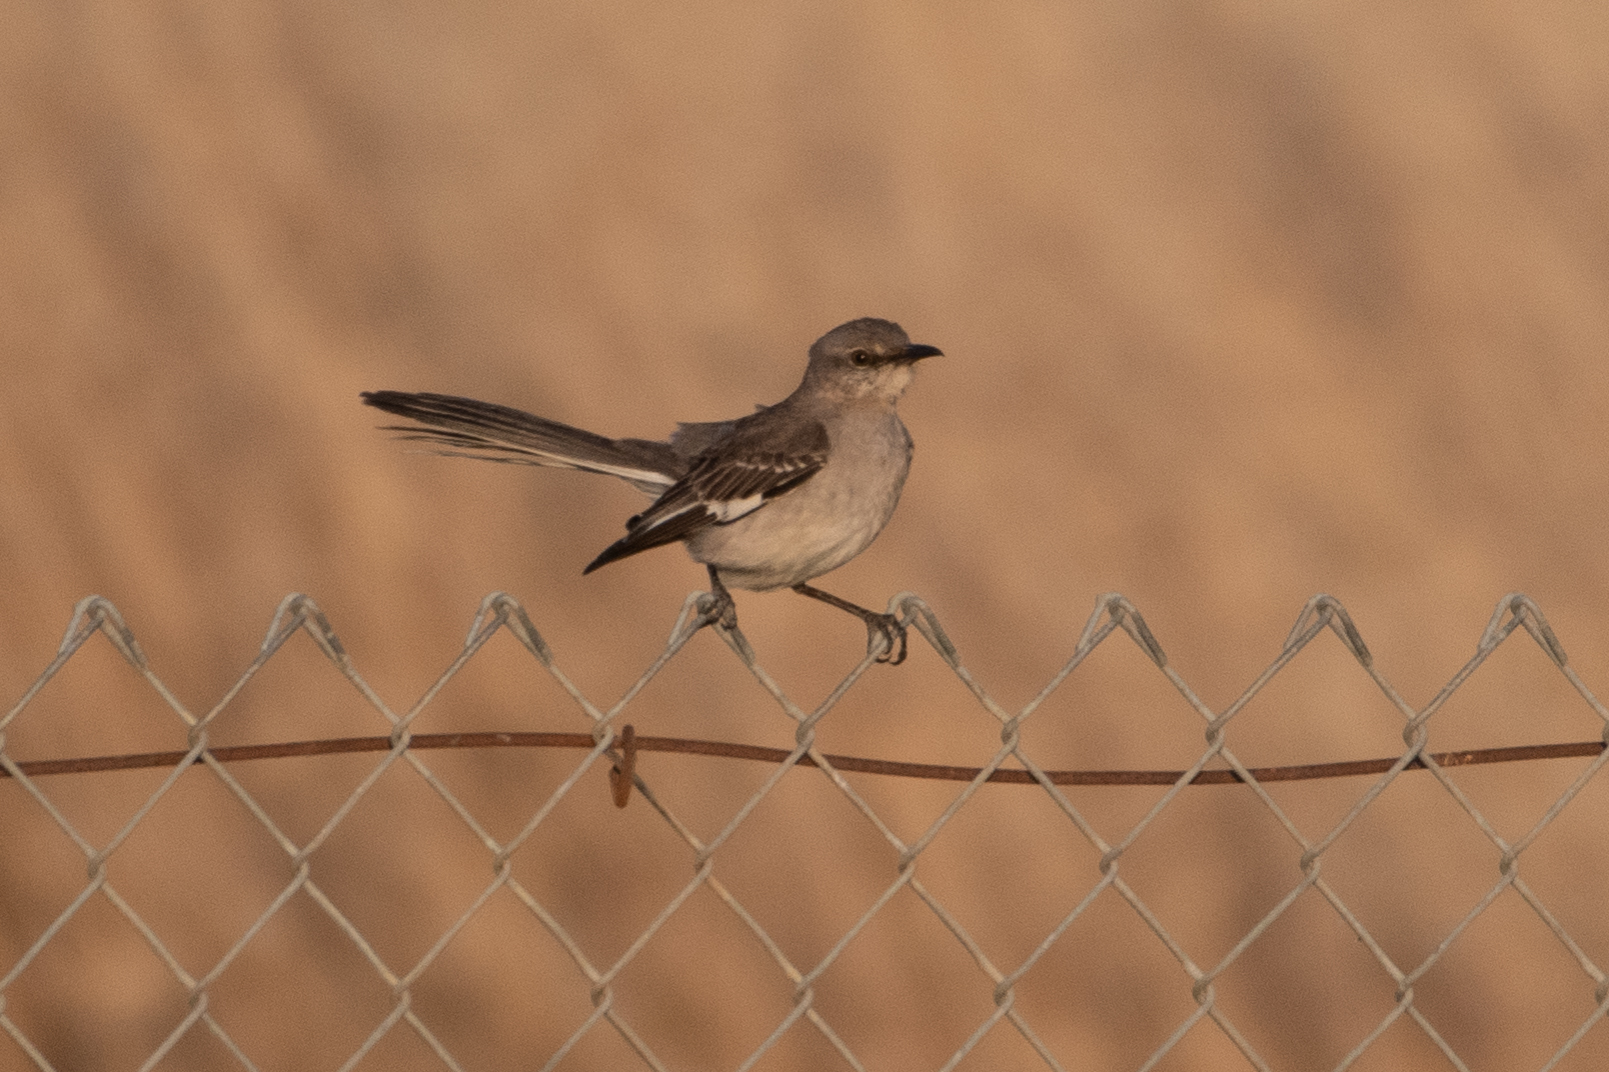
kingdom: Animalia
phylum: Chordata
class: Aves
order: Passeriformes
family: Mimidae
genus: Mimus
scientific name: Mimus polyglottos
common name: Northern mockingbird
